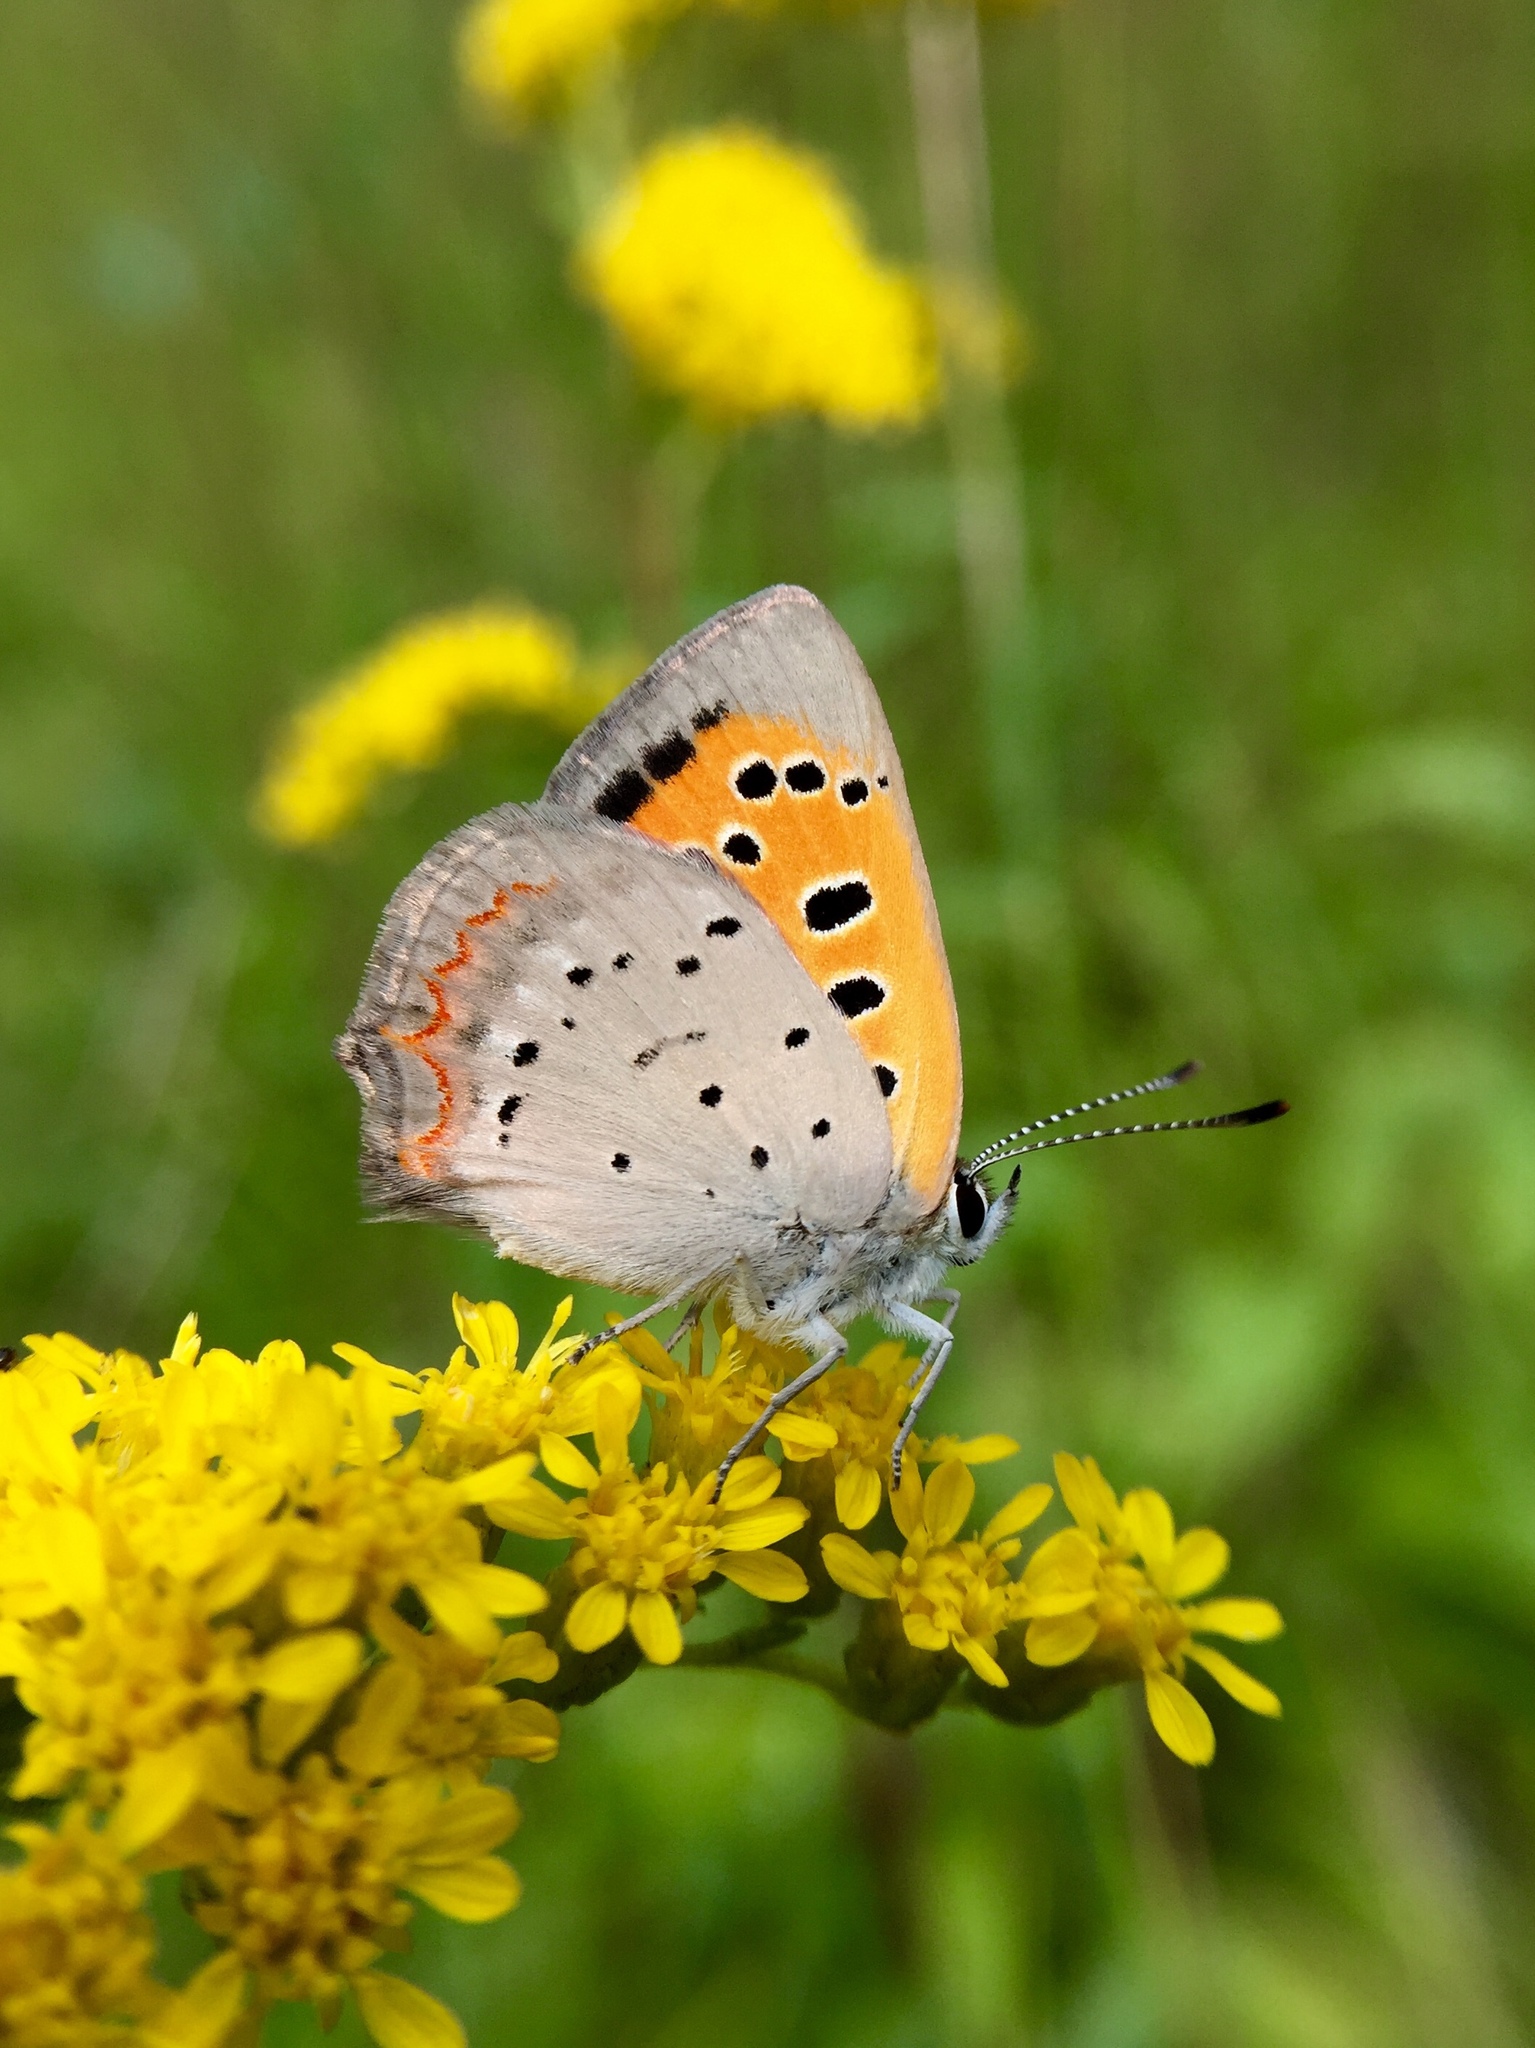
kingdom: Animalia
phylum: Arthropoda
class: Insecta
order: Lepidoptera
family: Lycaenidae
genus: Lycaena
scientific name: Lycaena hypophlaeas
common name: American copper
